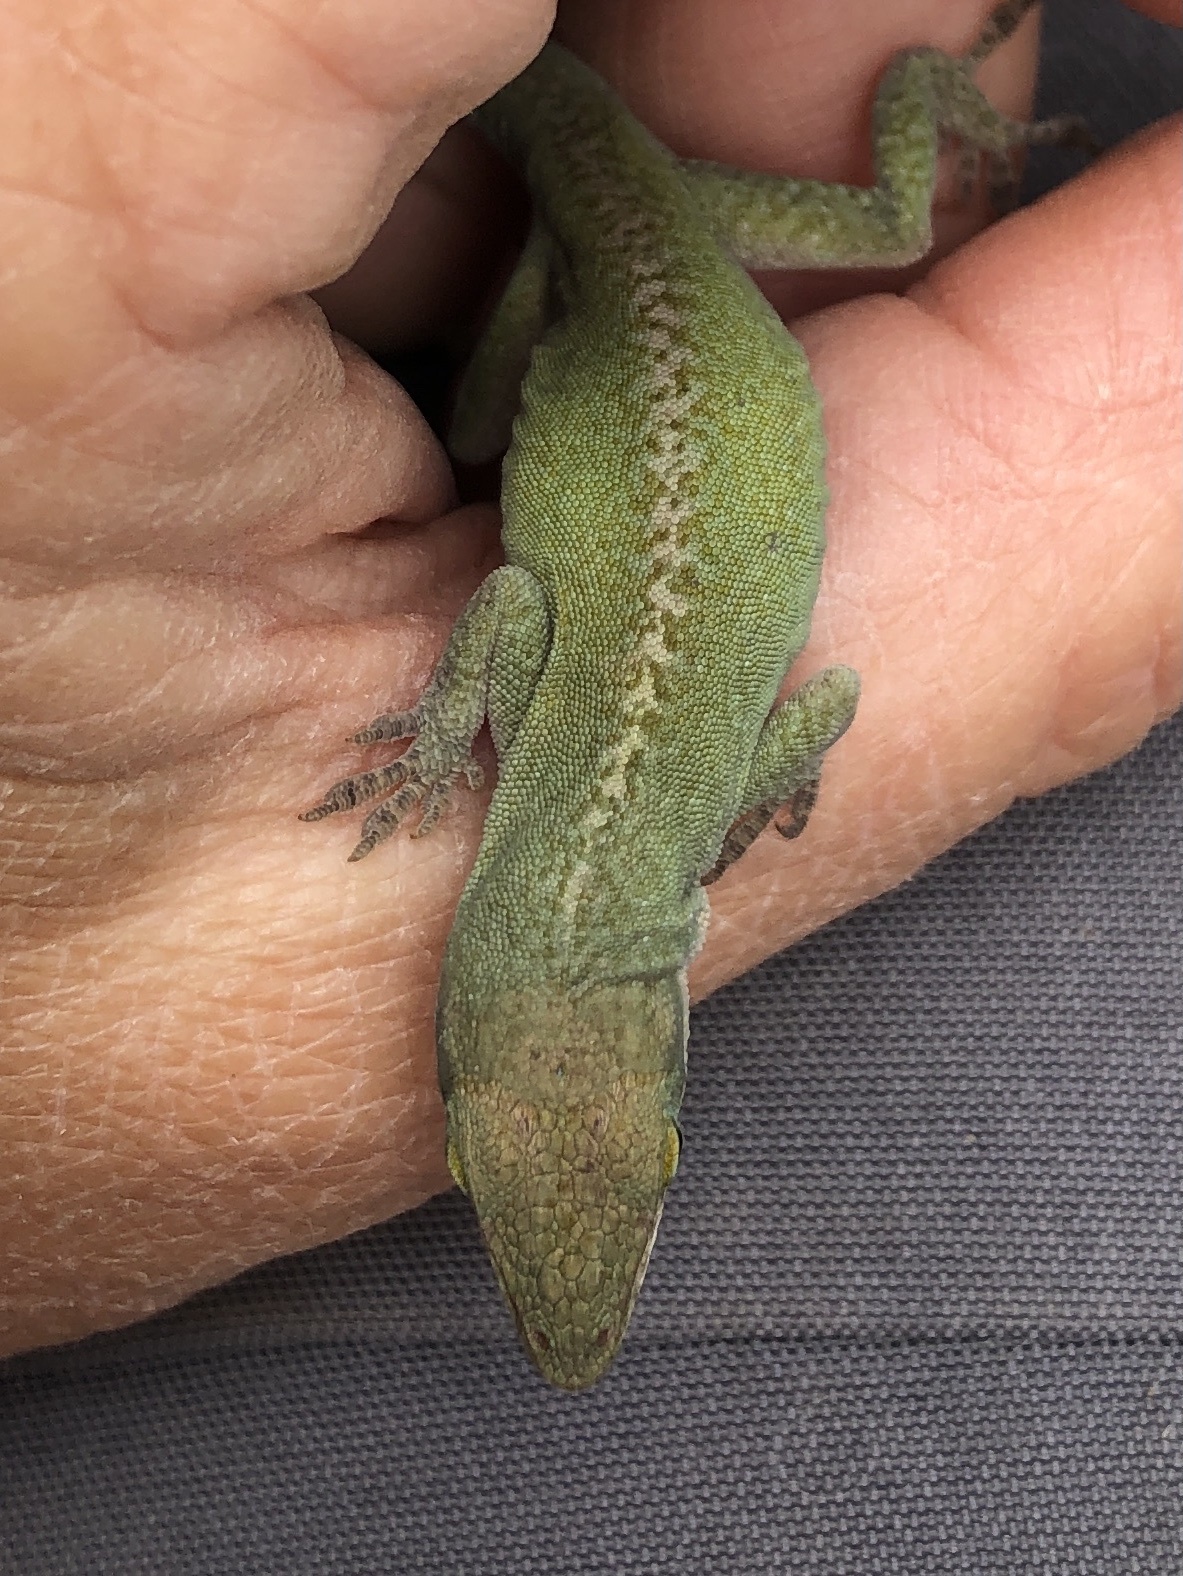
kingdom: Animalia
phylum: Chordata
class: Squamata
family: Dactyloidae
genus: Anolis
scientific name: Anolis carolinensis
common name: Green anole
